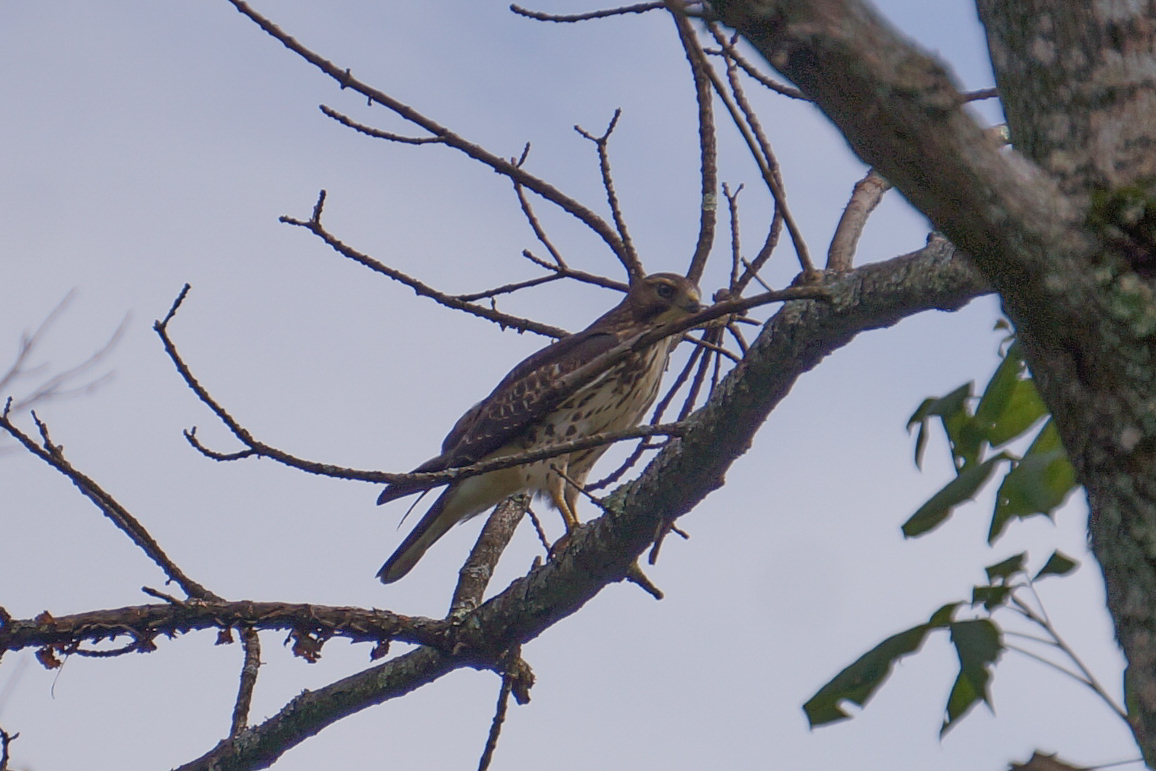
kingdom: Animalia
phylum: Chordata
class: Aves
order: Accipitriformes
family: Accipitridae
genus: Buteo
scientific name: Buteo platypterus
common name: Broad-winged hawk
